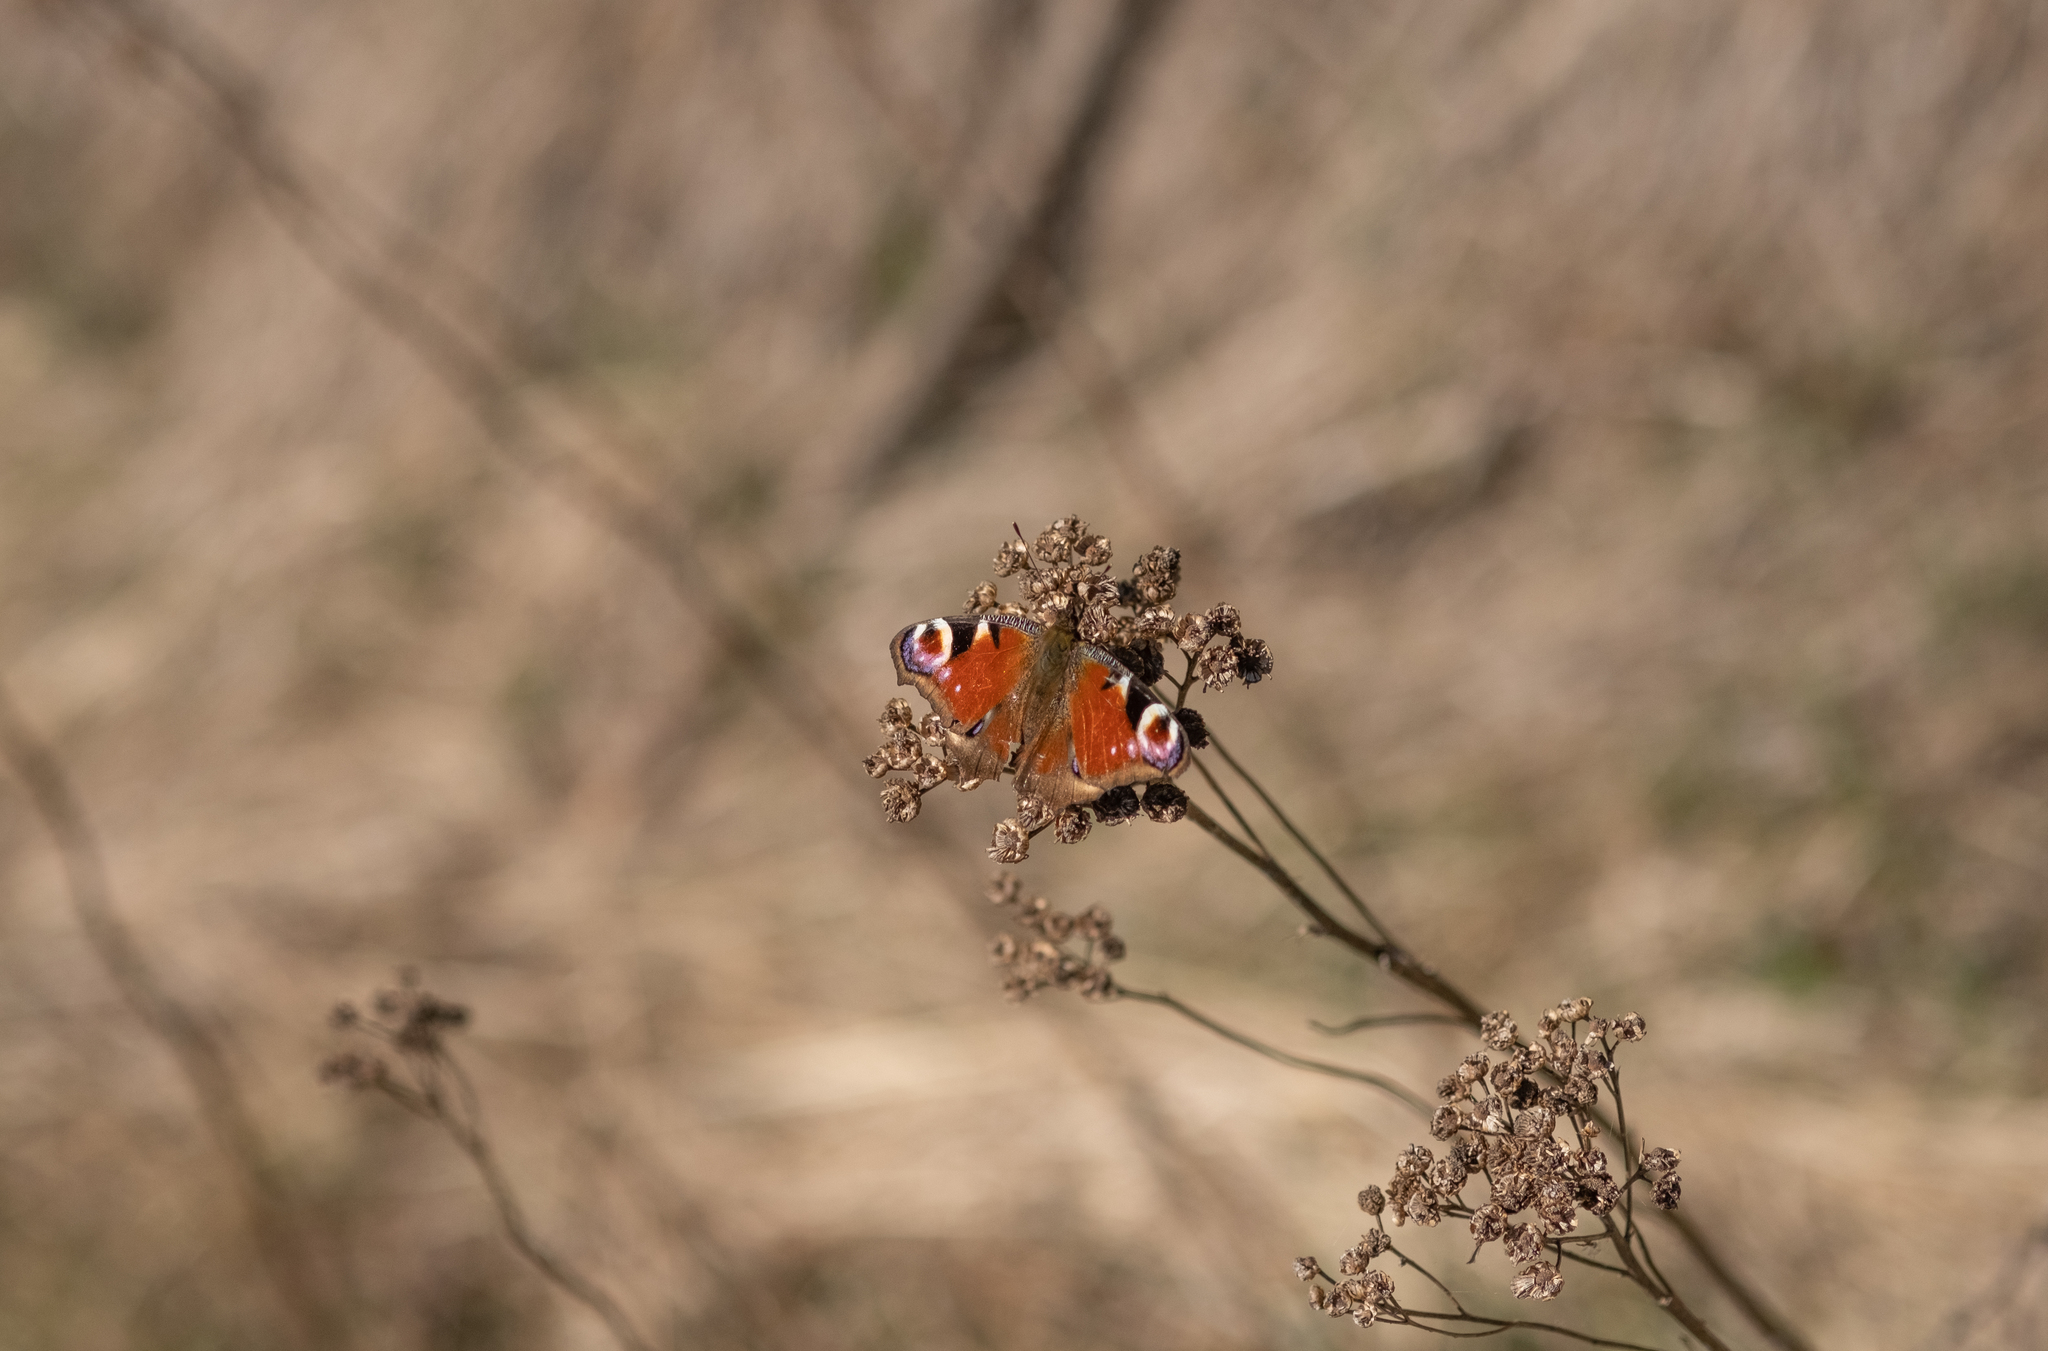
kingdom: Animalia
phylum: Arthropoda
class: Insecta
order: Lepidoptera
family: Nymphalidae
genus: Aglais
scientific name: Aglais io
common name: Peacock
